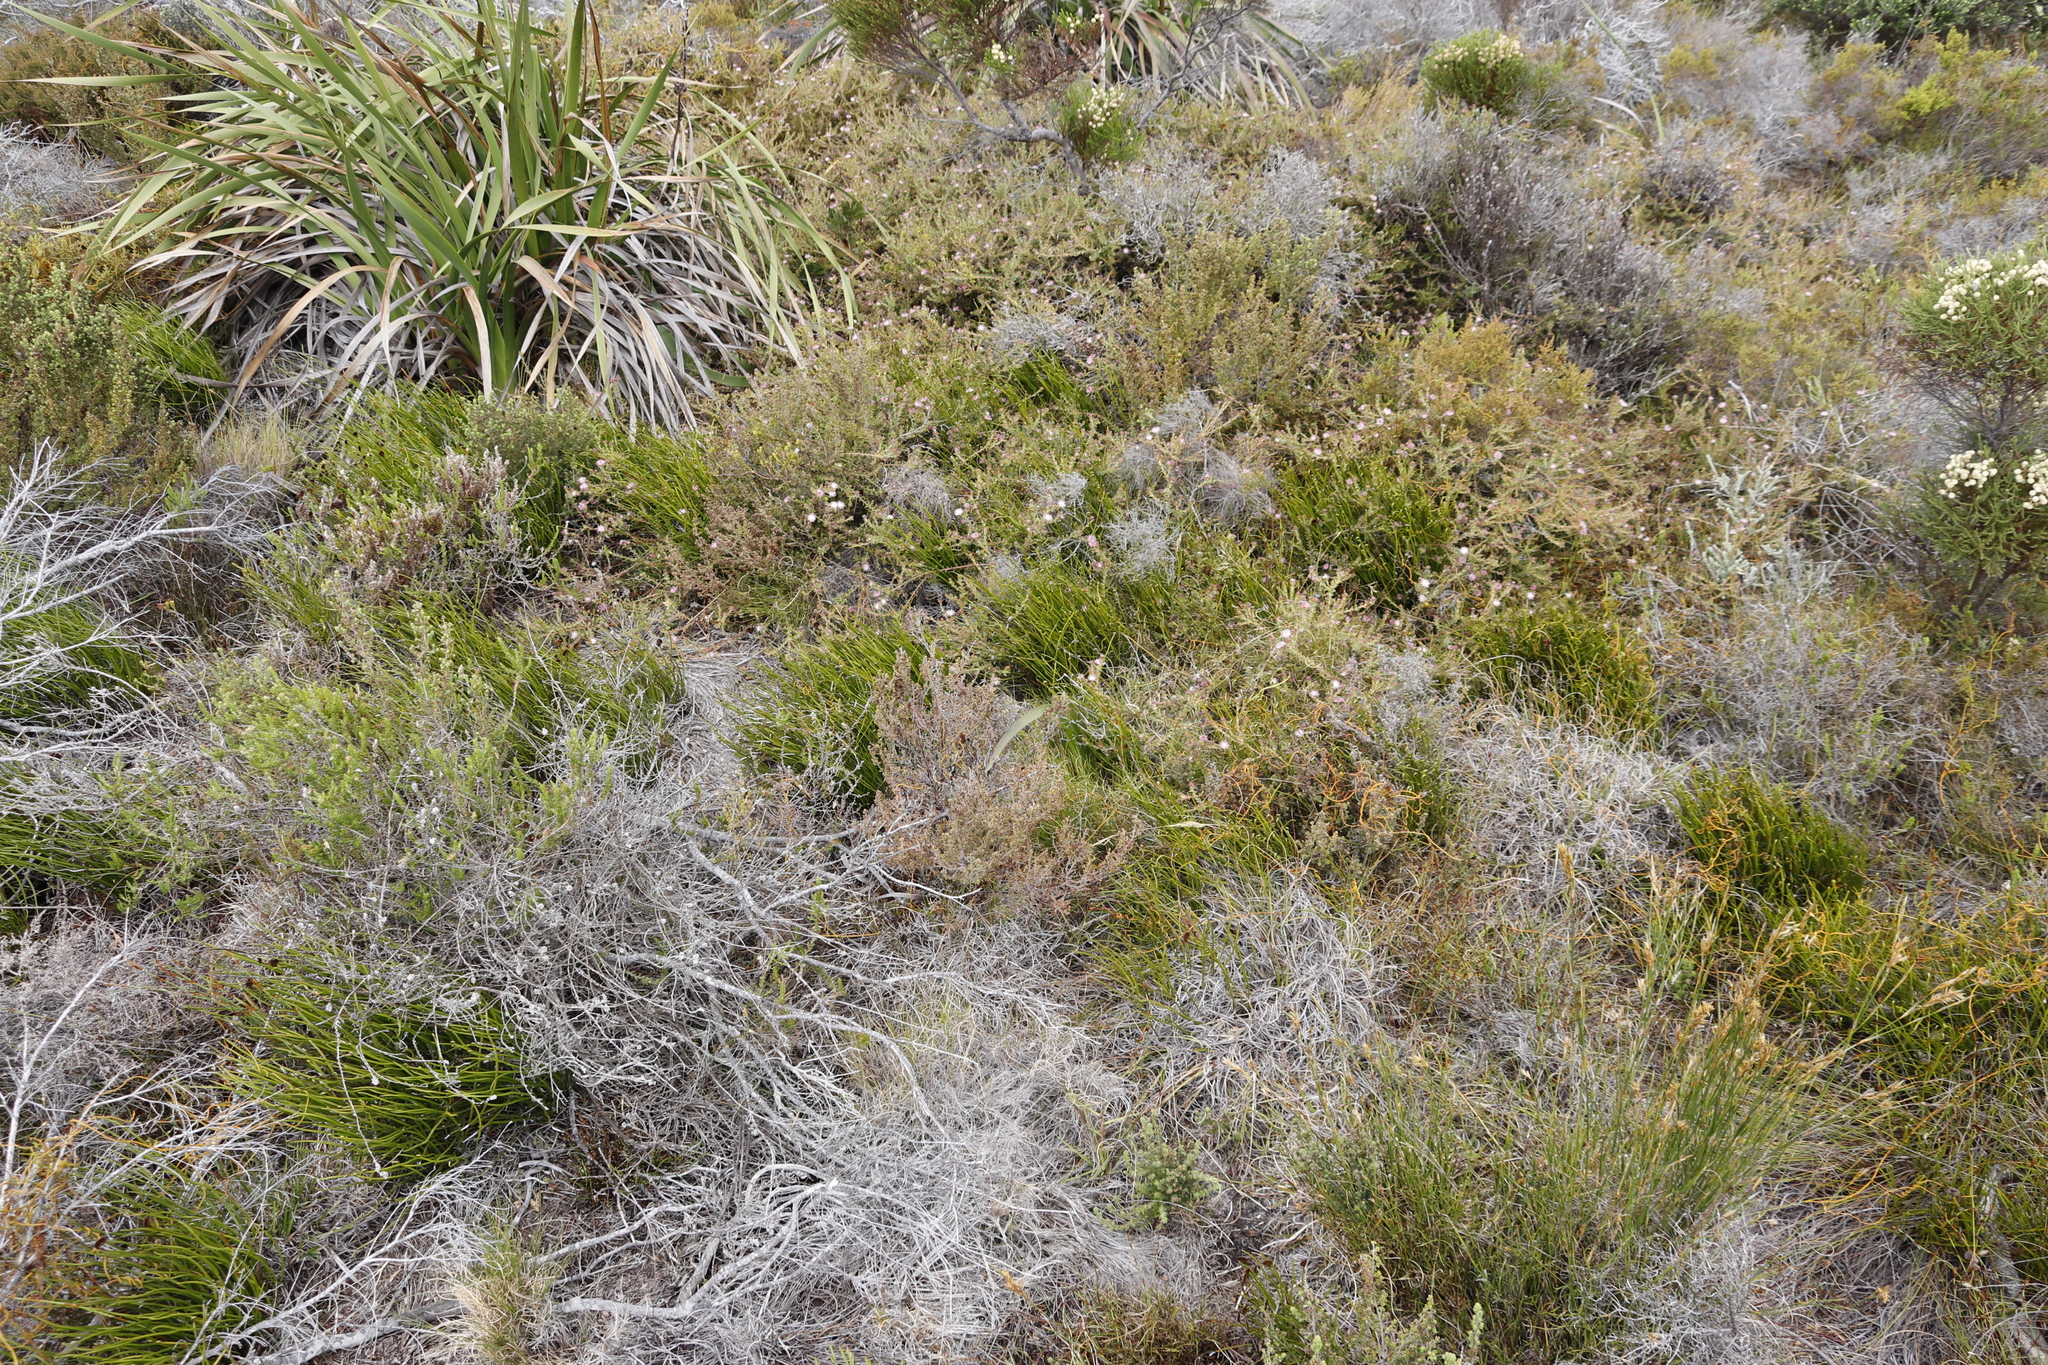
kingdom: Plantae
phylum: Tracheophyta
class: Magnoliopsida
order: Proteales
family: Proteaceae
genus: Diastella
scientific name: Diastella divaricata
